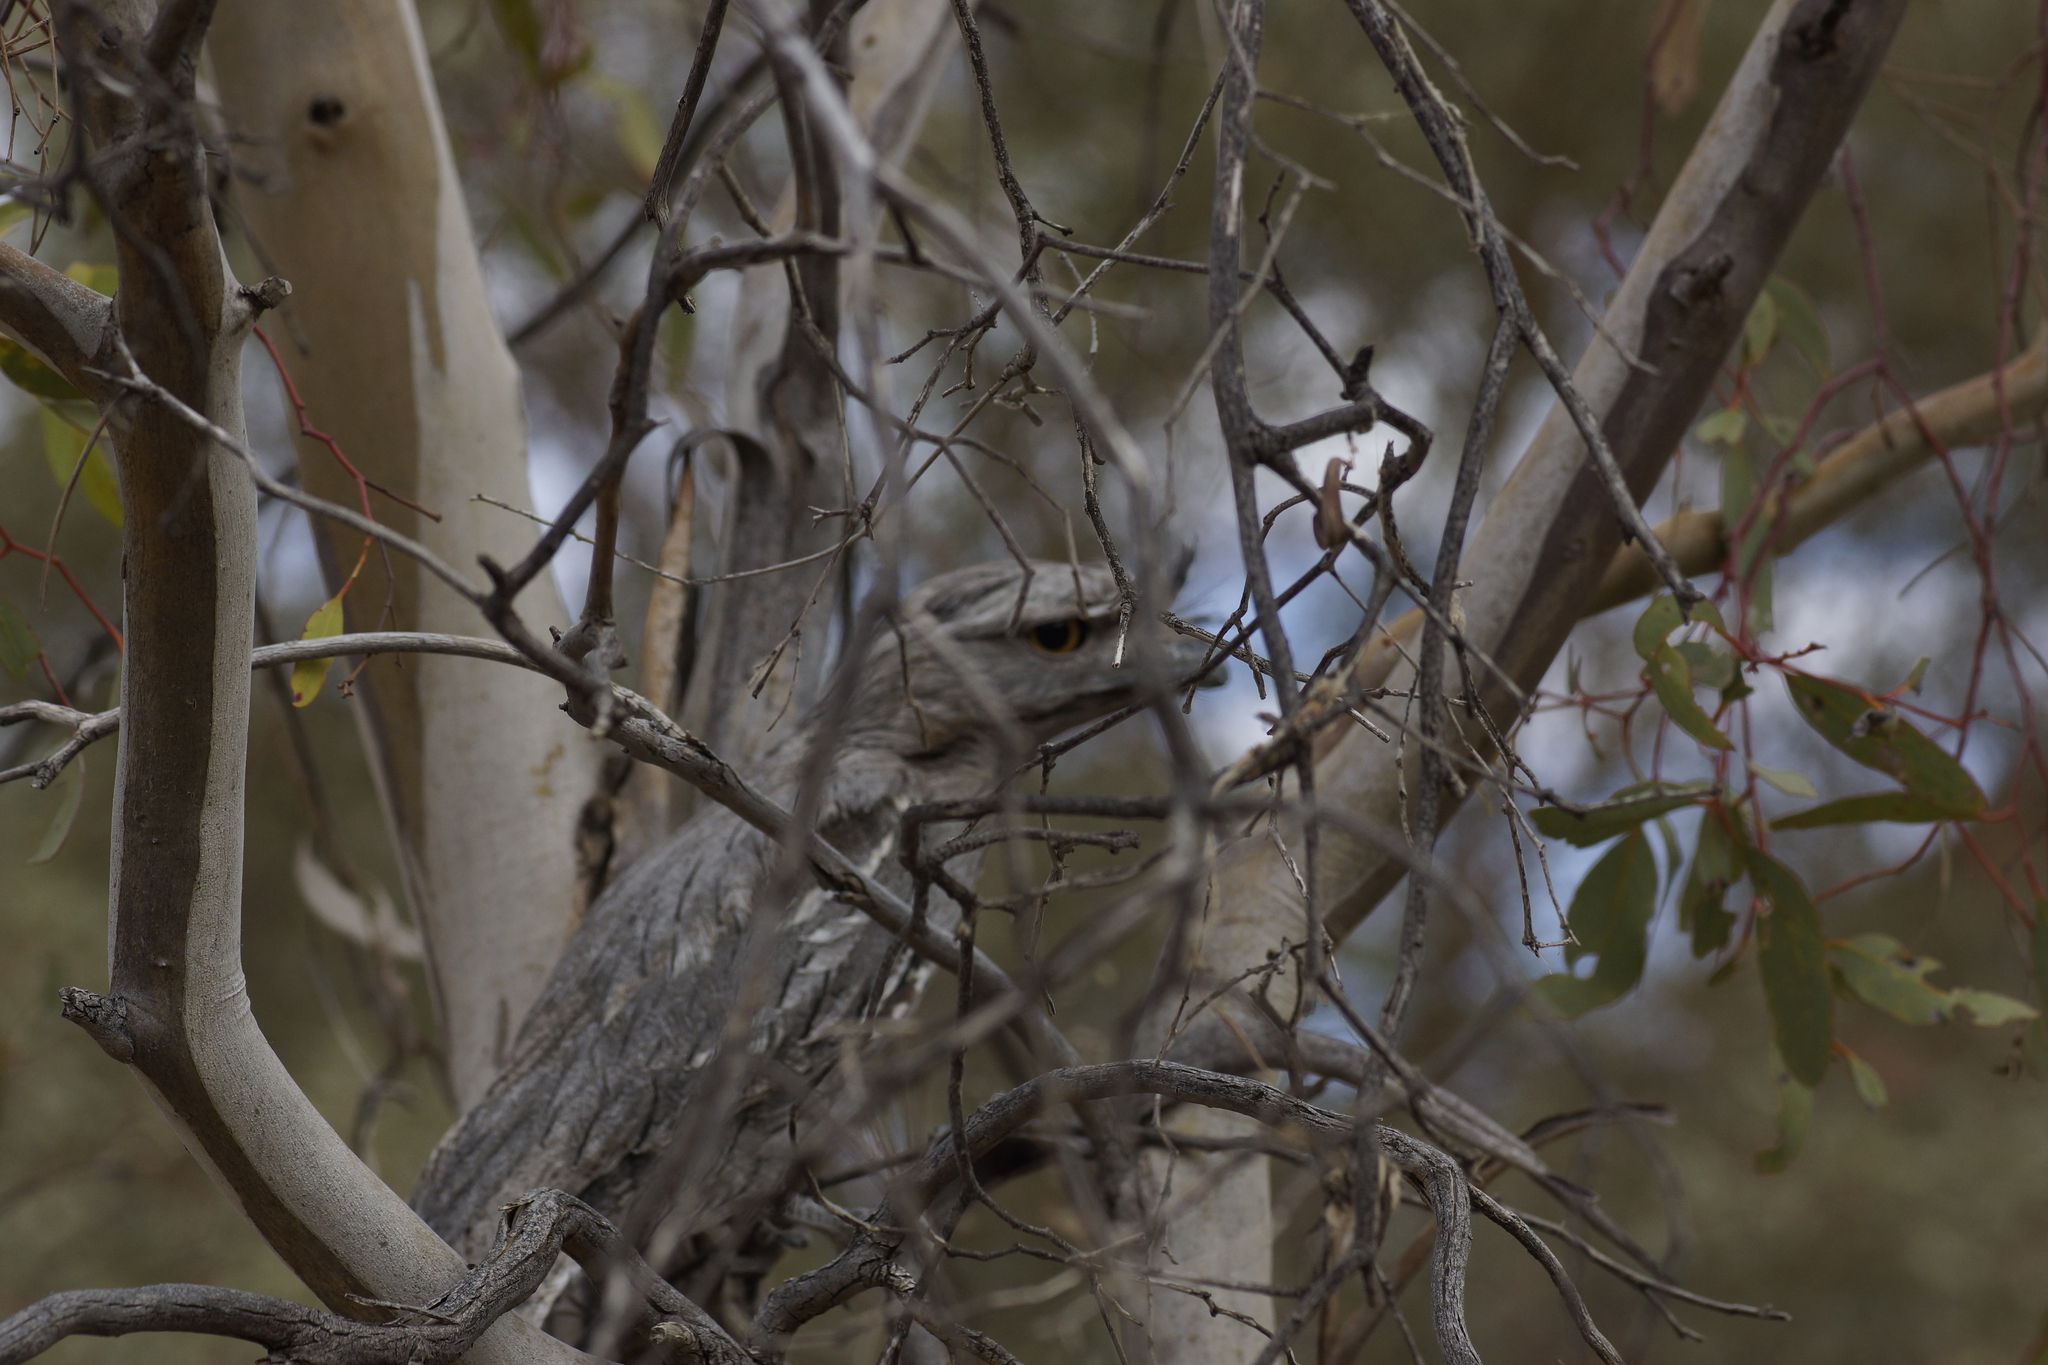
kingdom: Animalia
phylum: Chordata
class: Aves
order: Caprimulgiformes
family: Podargidae
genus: Podargus
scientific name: Podargus strigoides
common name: Tawny frogmouth
